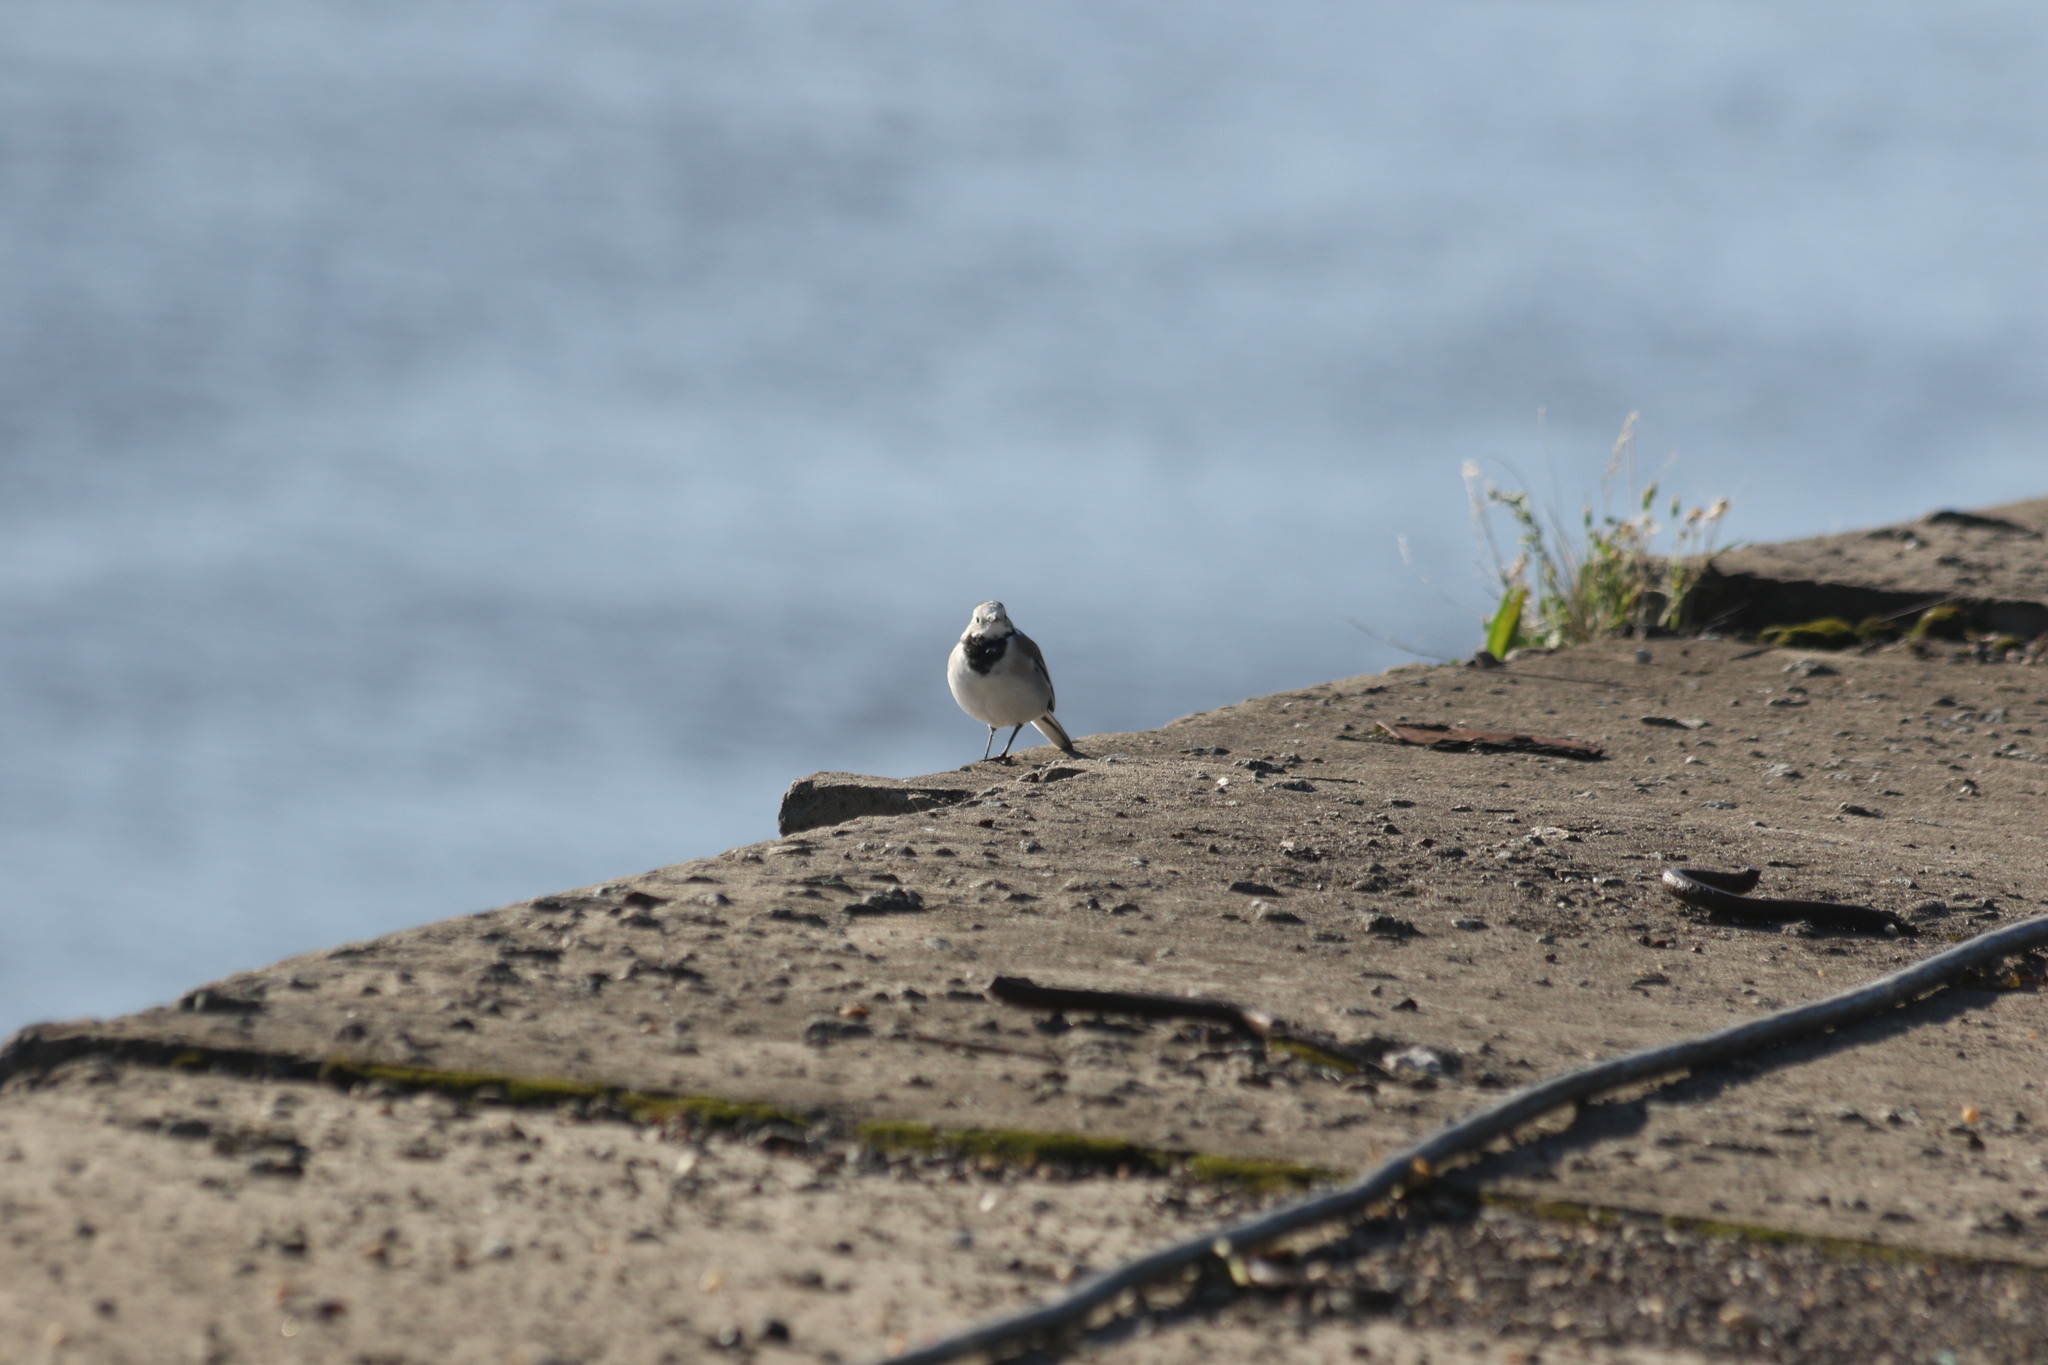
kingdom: Animalia
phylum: Chordata
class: Aves
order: Passeriformes
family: Motacillidae
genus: Motacilla
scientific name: Motacilla alba
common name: White wagtail
